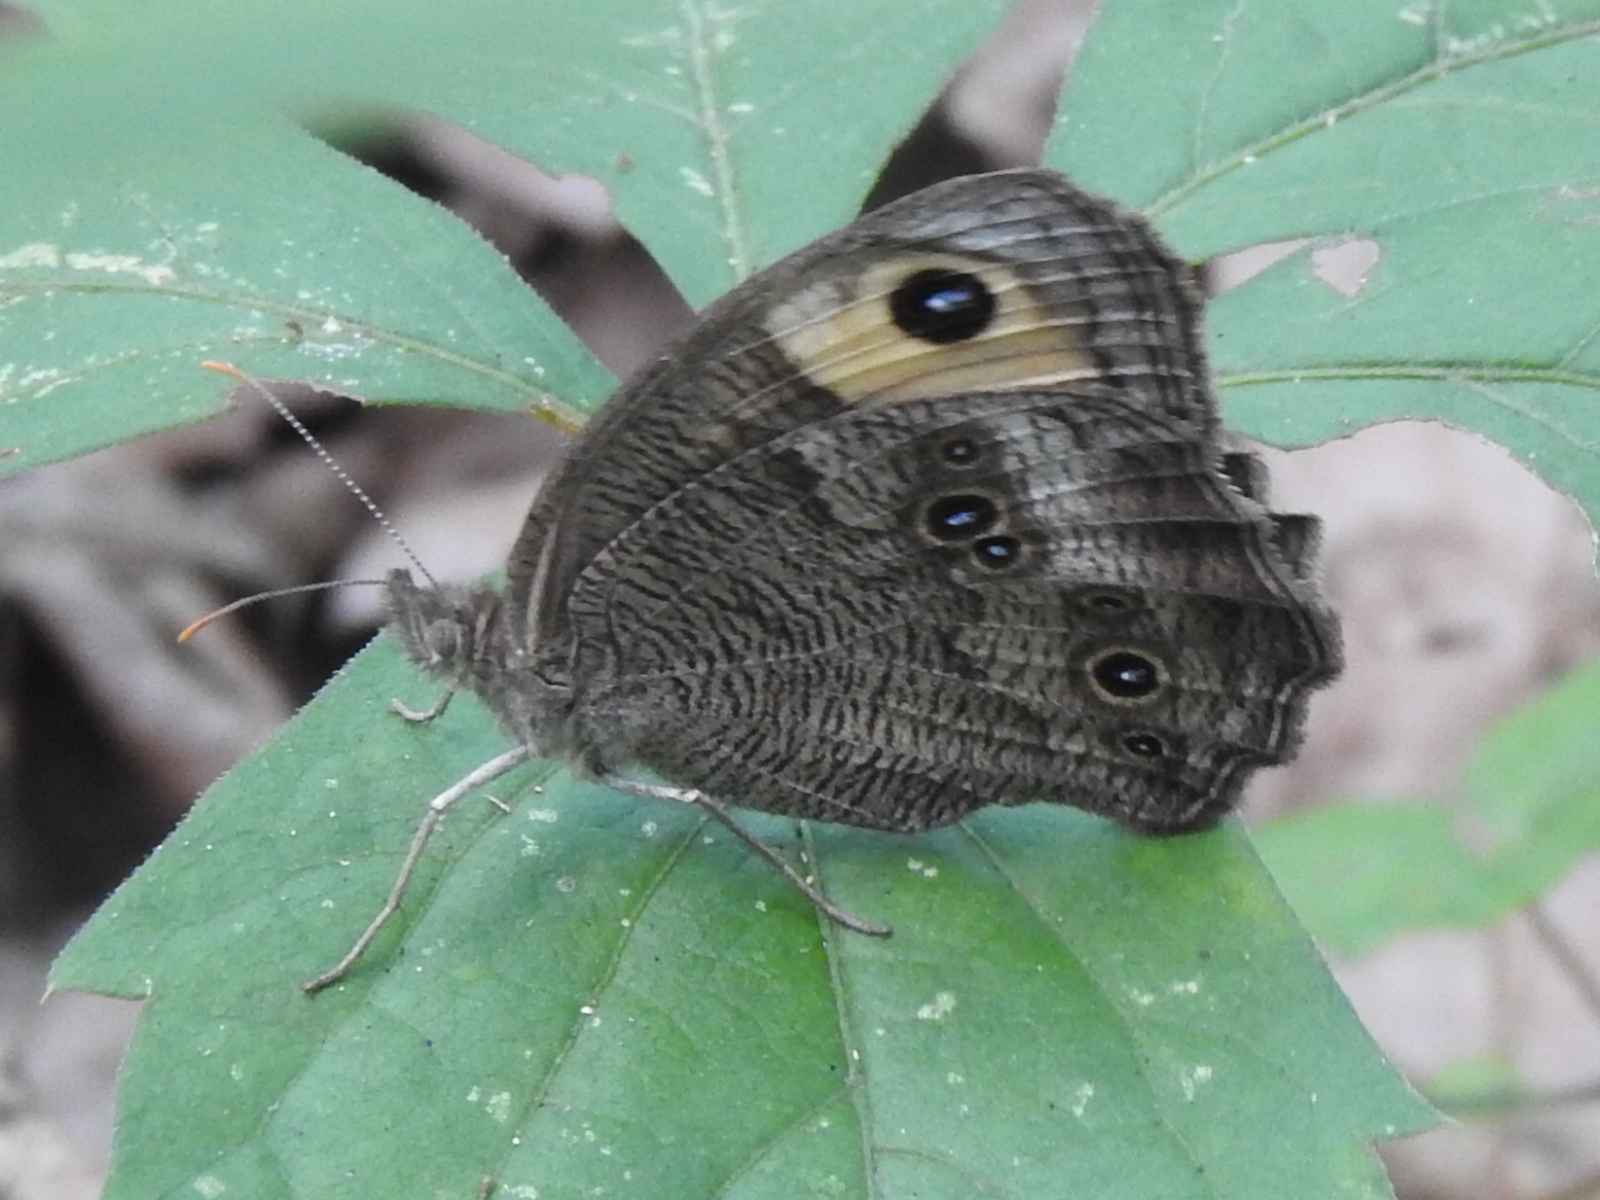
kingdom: Animalia
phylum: Arthropoda
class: Insecta
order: Lepidoptera
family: Nymphalidae
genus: Cercyonis
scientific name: Cercyonis pegala
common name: Common wood-nymph
